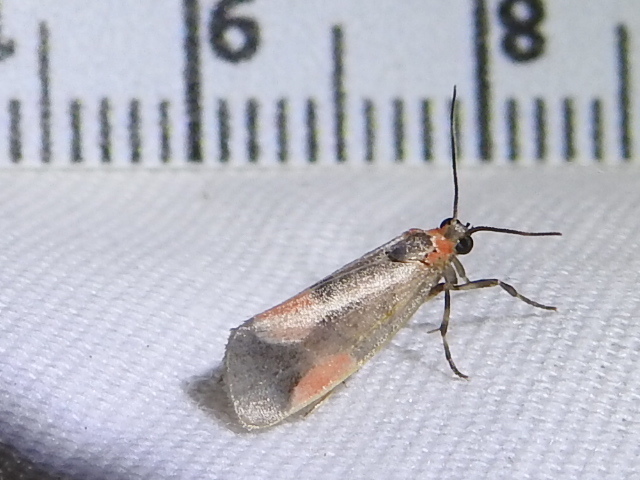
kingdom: Animalia
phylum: Arthropoda
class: Insecta
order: Lepidoptera
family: Erebidae
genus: Cisthene
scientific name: Cisthene packardii
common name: Packard's lichen moth
